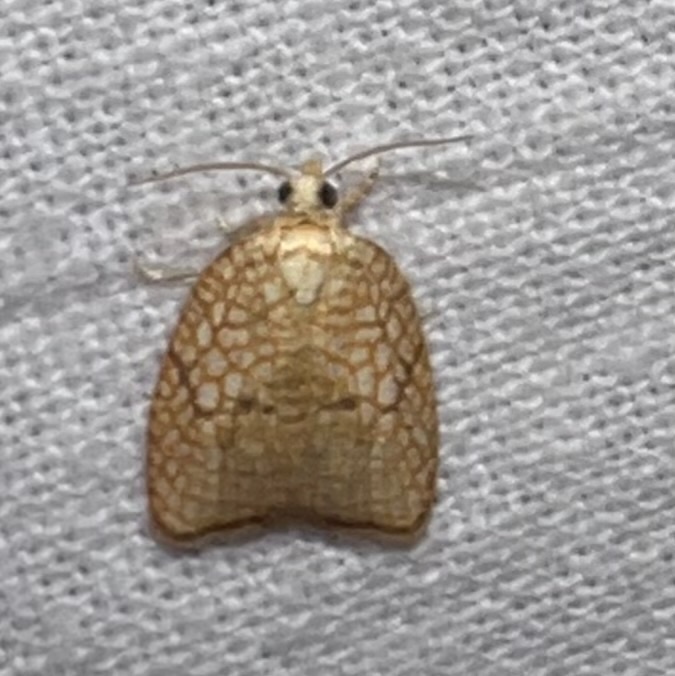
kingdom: Animalia
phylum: Arthropoda
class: Insecta
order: Lepidoptera
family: Tortricidae
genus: Acleris
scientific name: Acleris forsskaleana
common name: Maple button
